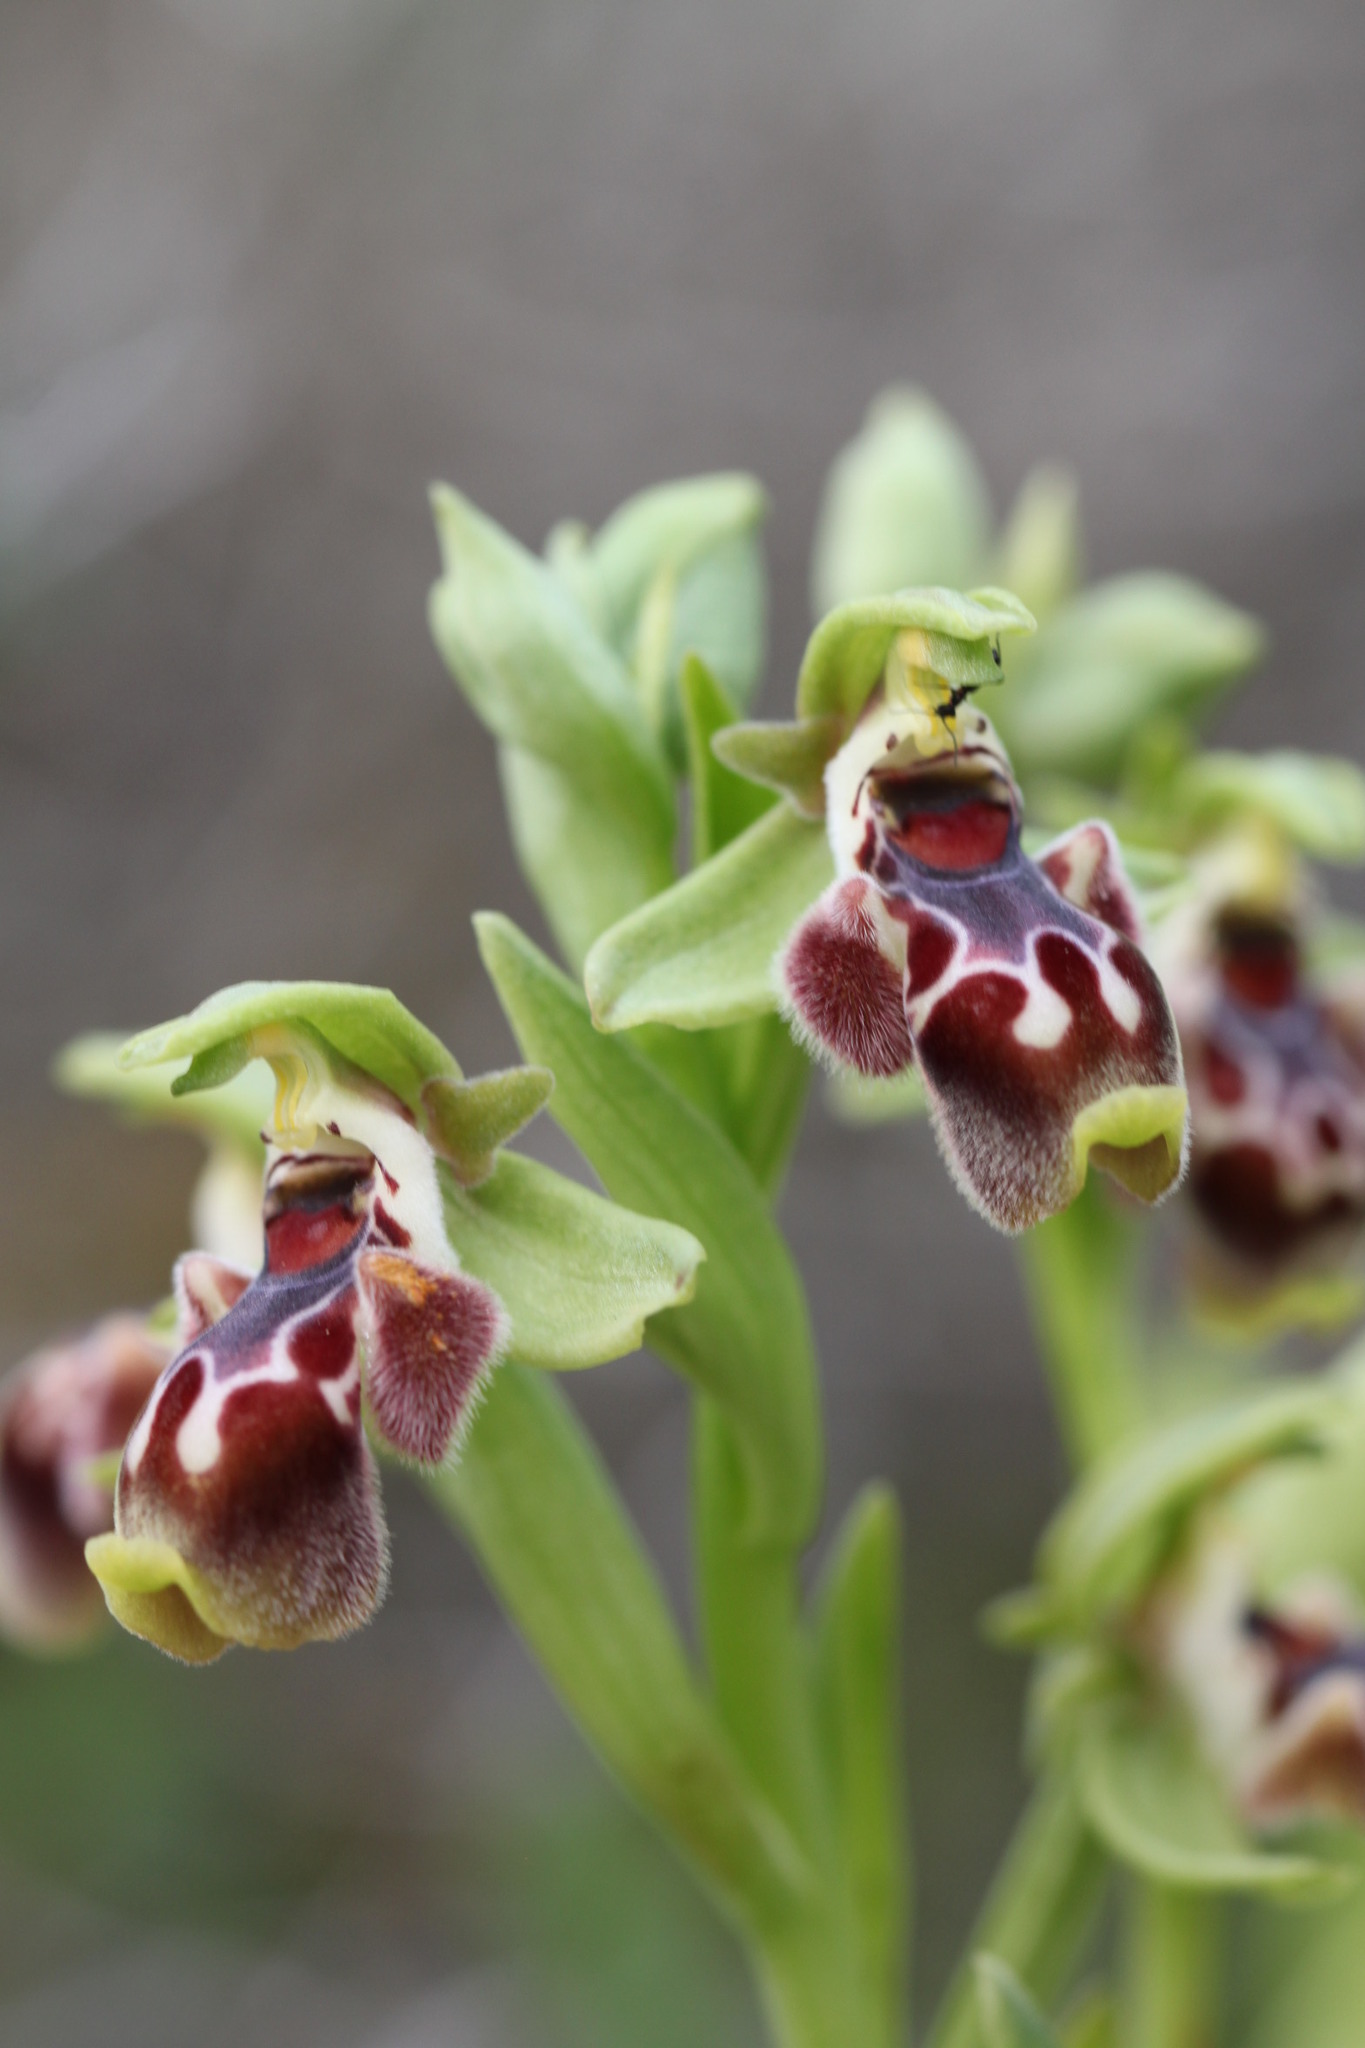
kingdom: Plantae
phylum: Tracheophyta
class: Liliopsida
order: Asparagales
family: Orchidaceae
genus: Ophrys
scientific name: Ophrys umbilicata
